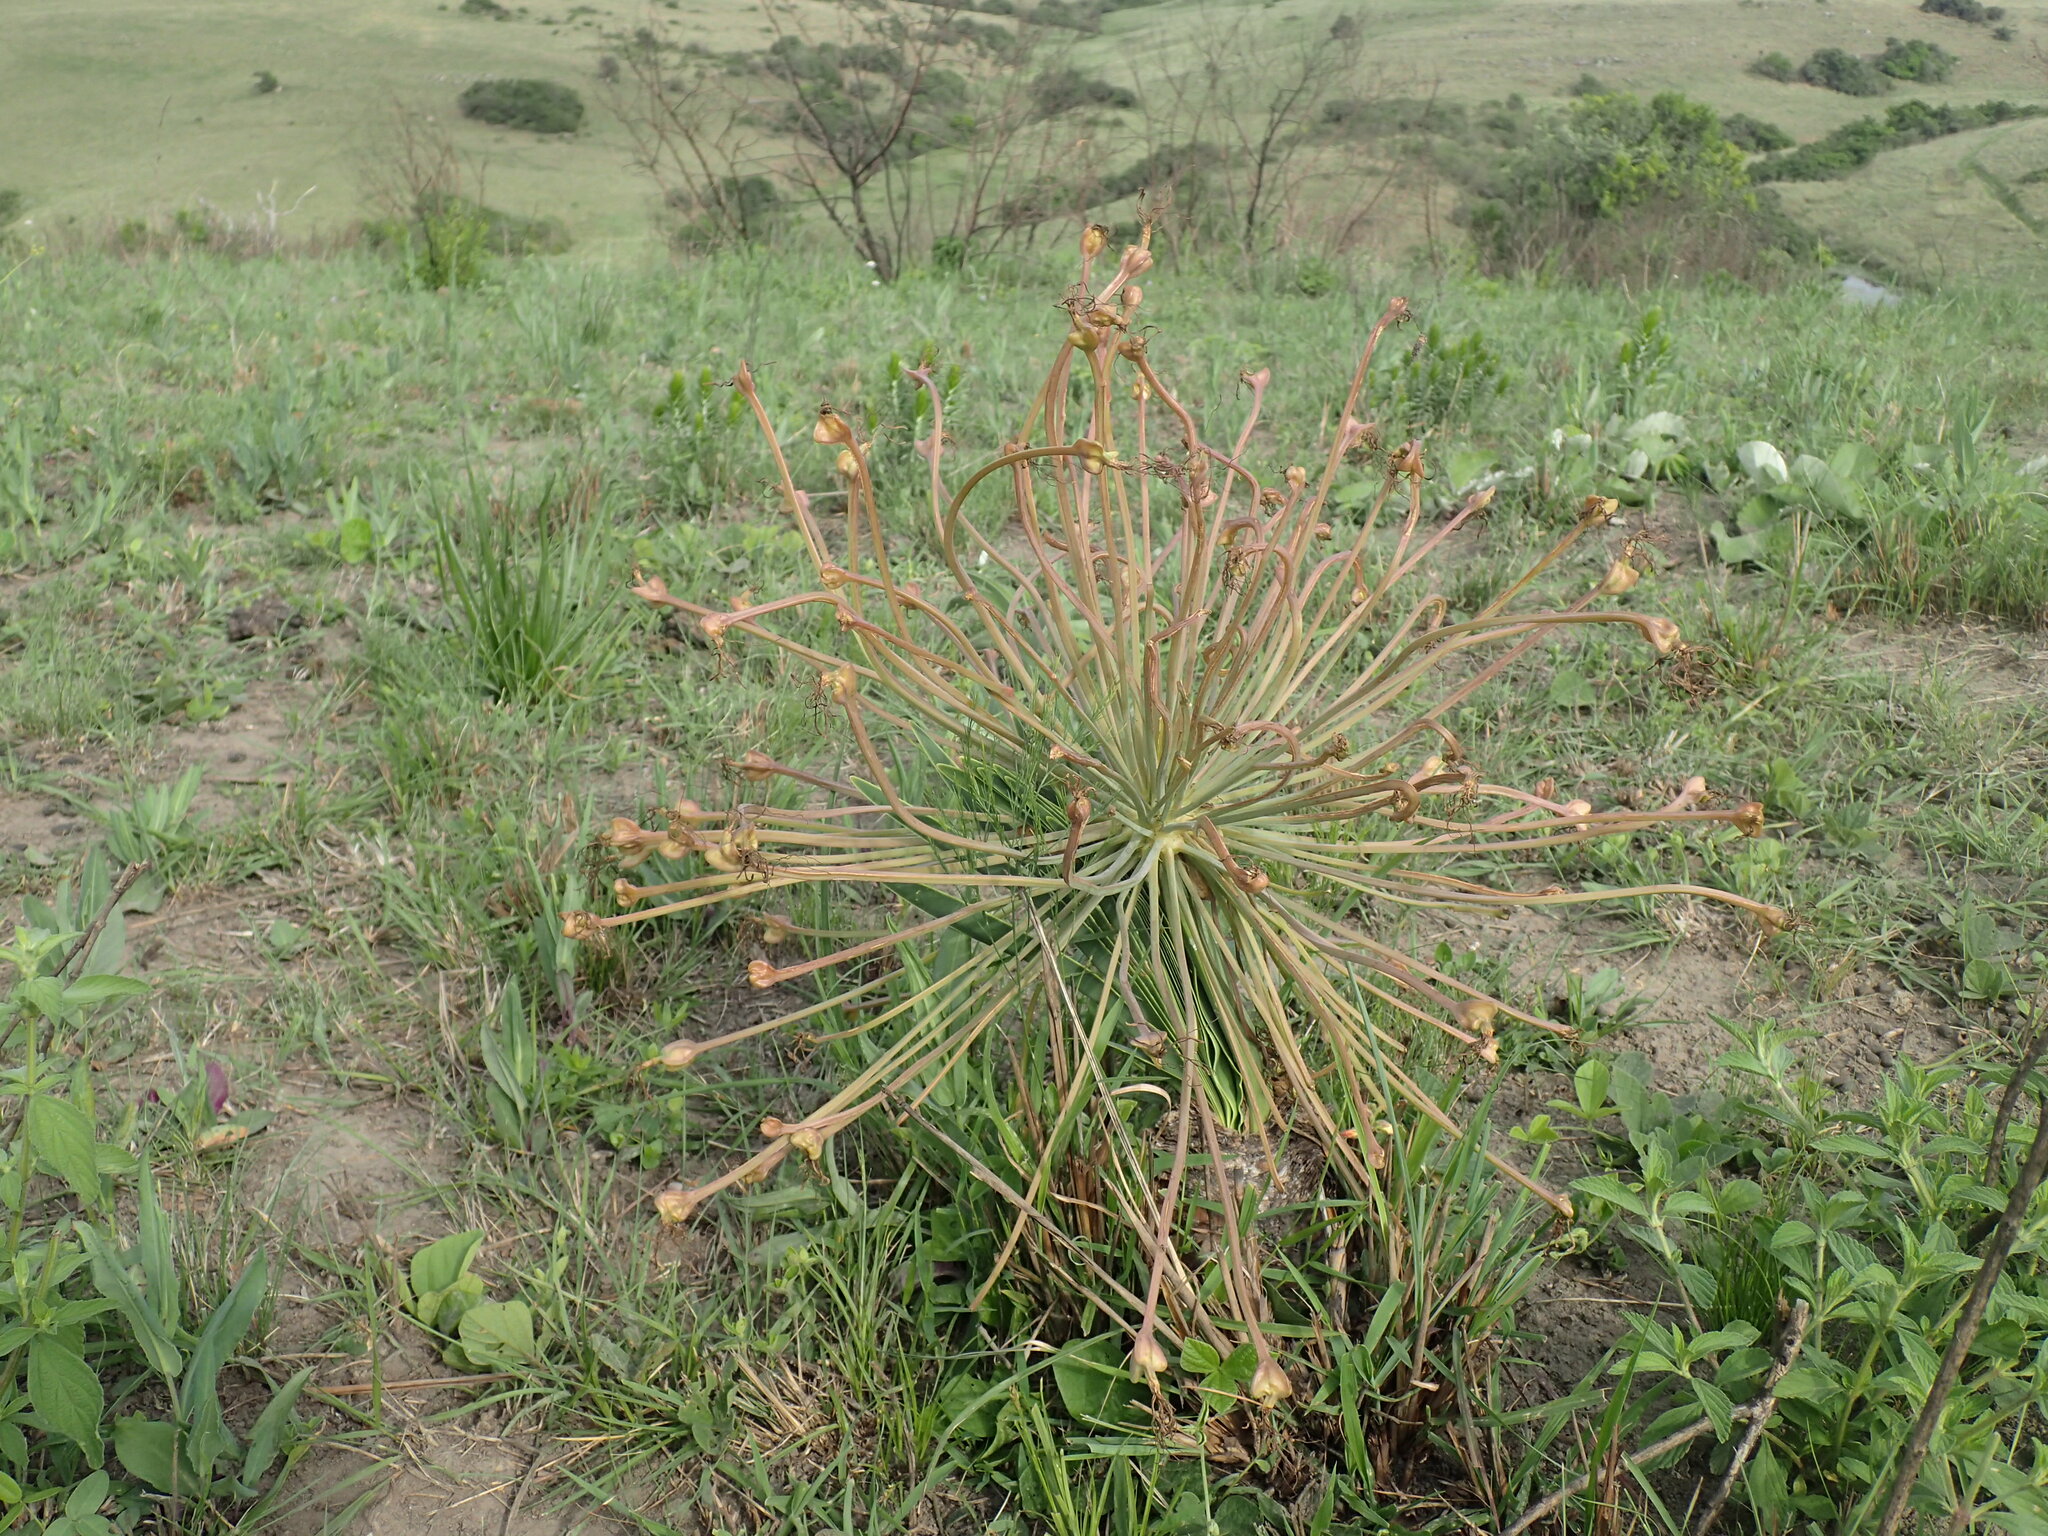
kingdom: Plantae
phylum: Tracheophyta
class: Liliopsida
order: Asparagales
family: Amaryllidaceae
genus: Boophone
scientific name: Boophone disticha
